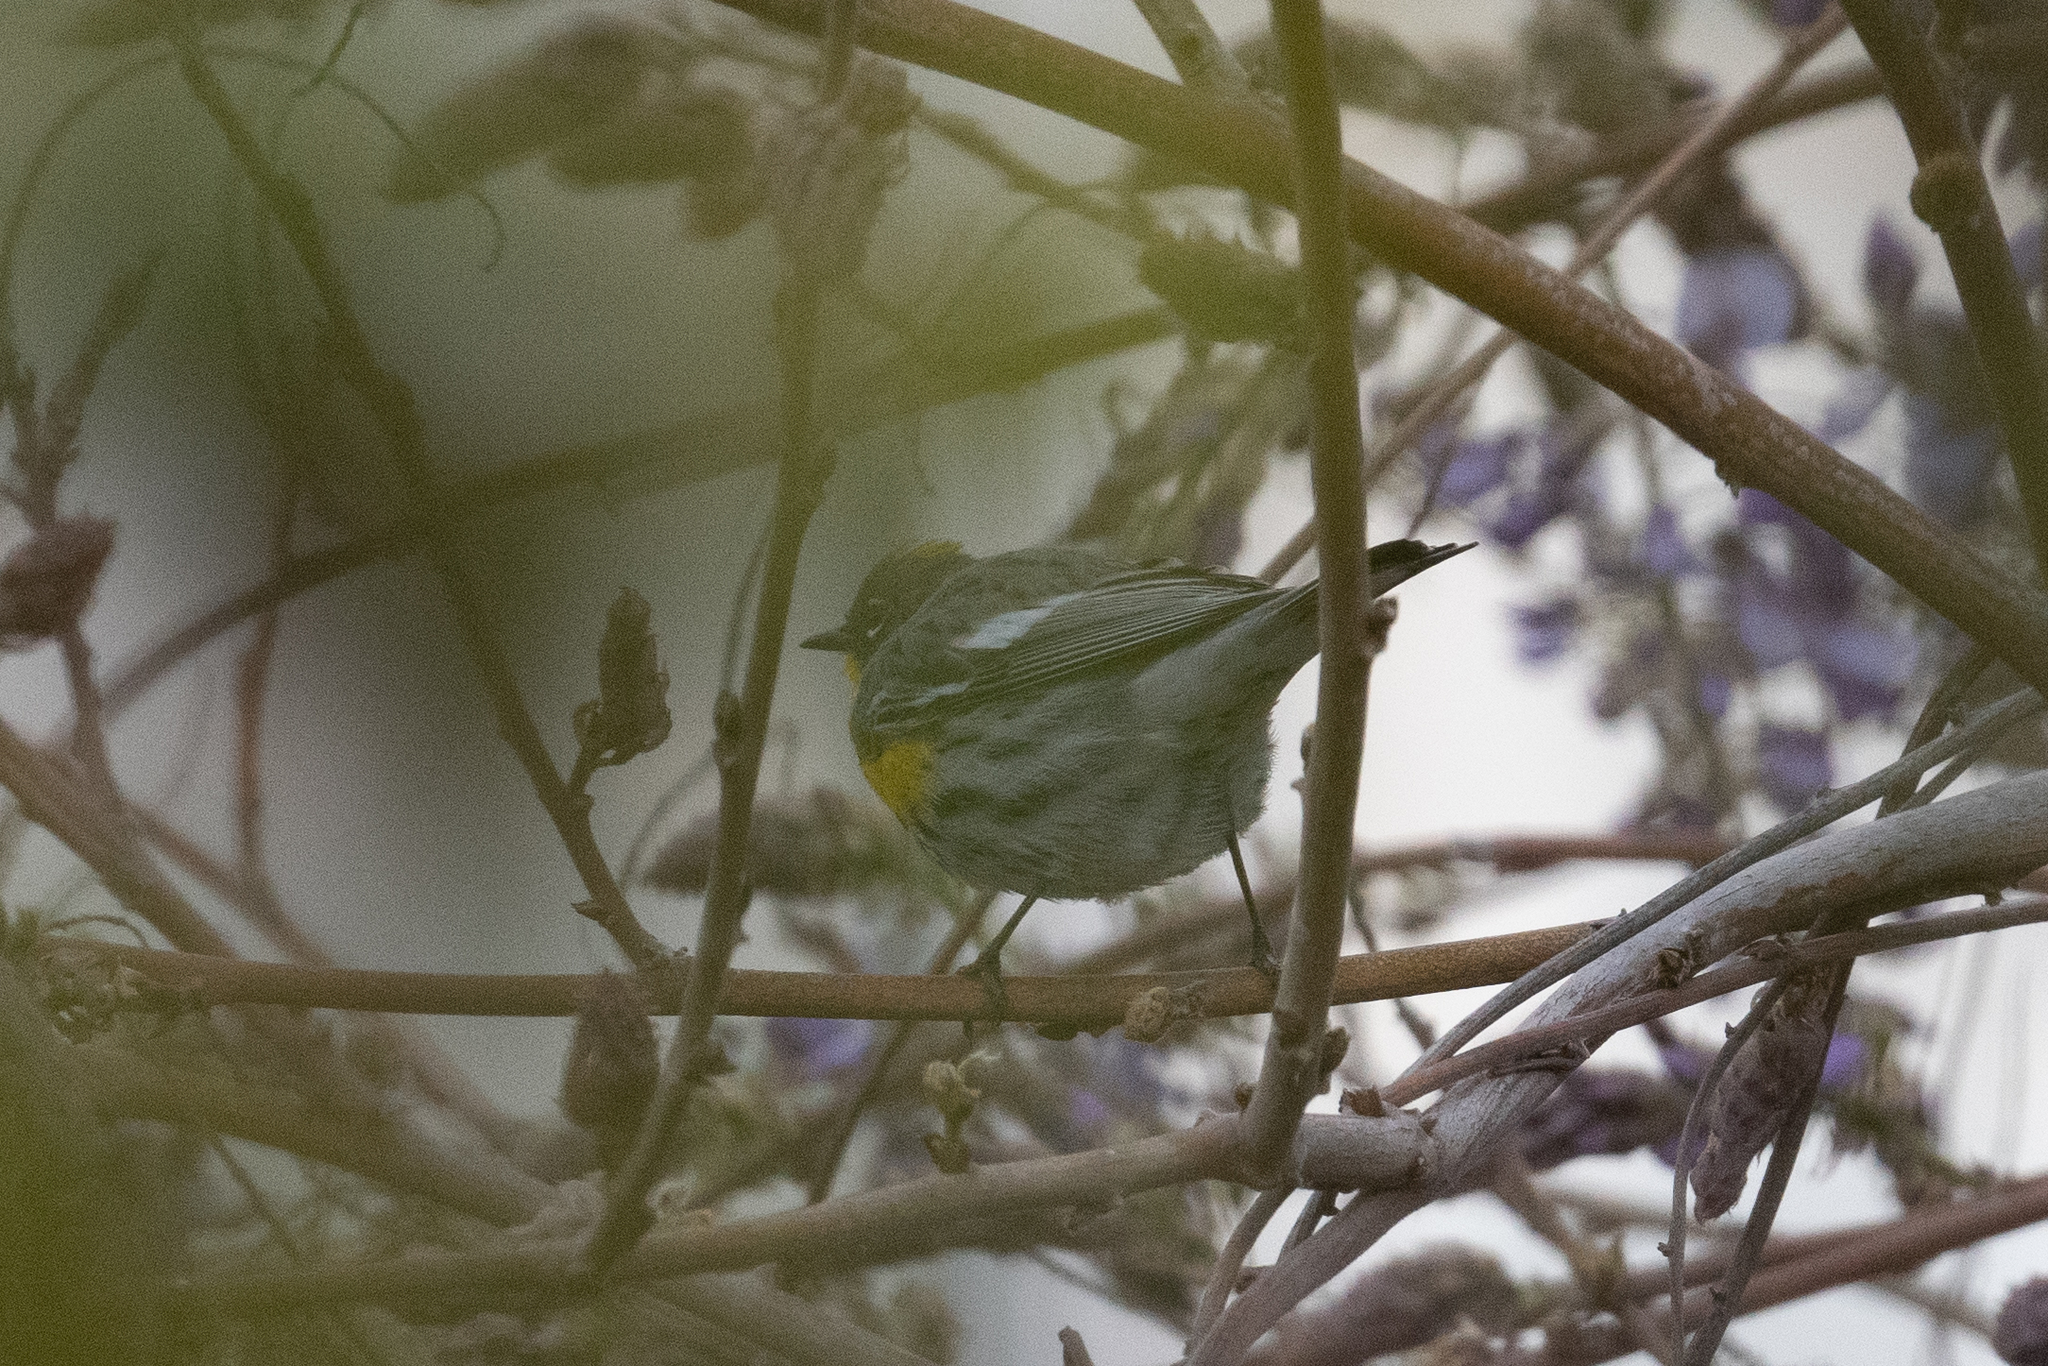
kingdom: Animalia
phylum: Chordata
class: Aves
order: Passeriformes
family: Parulidae
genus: Setophaga
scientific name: Setophaga coronata
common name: Myrtle warbler
